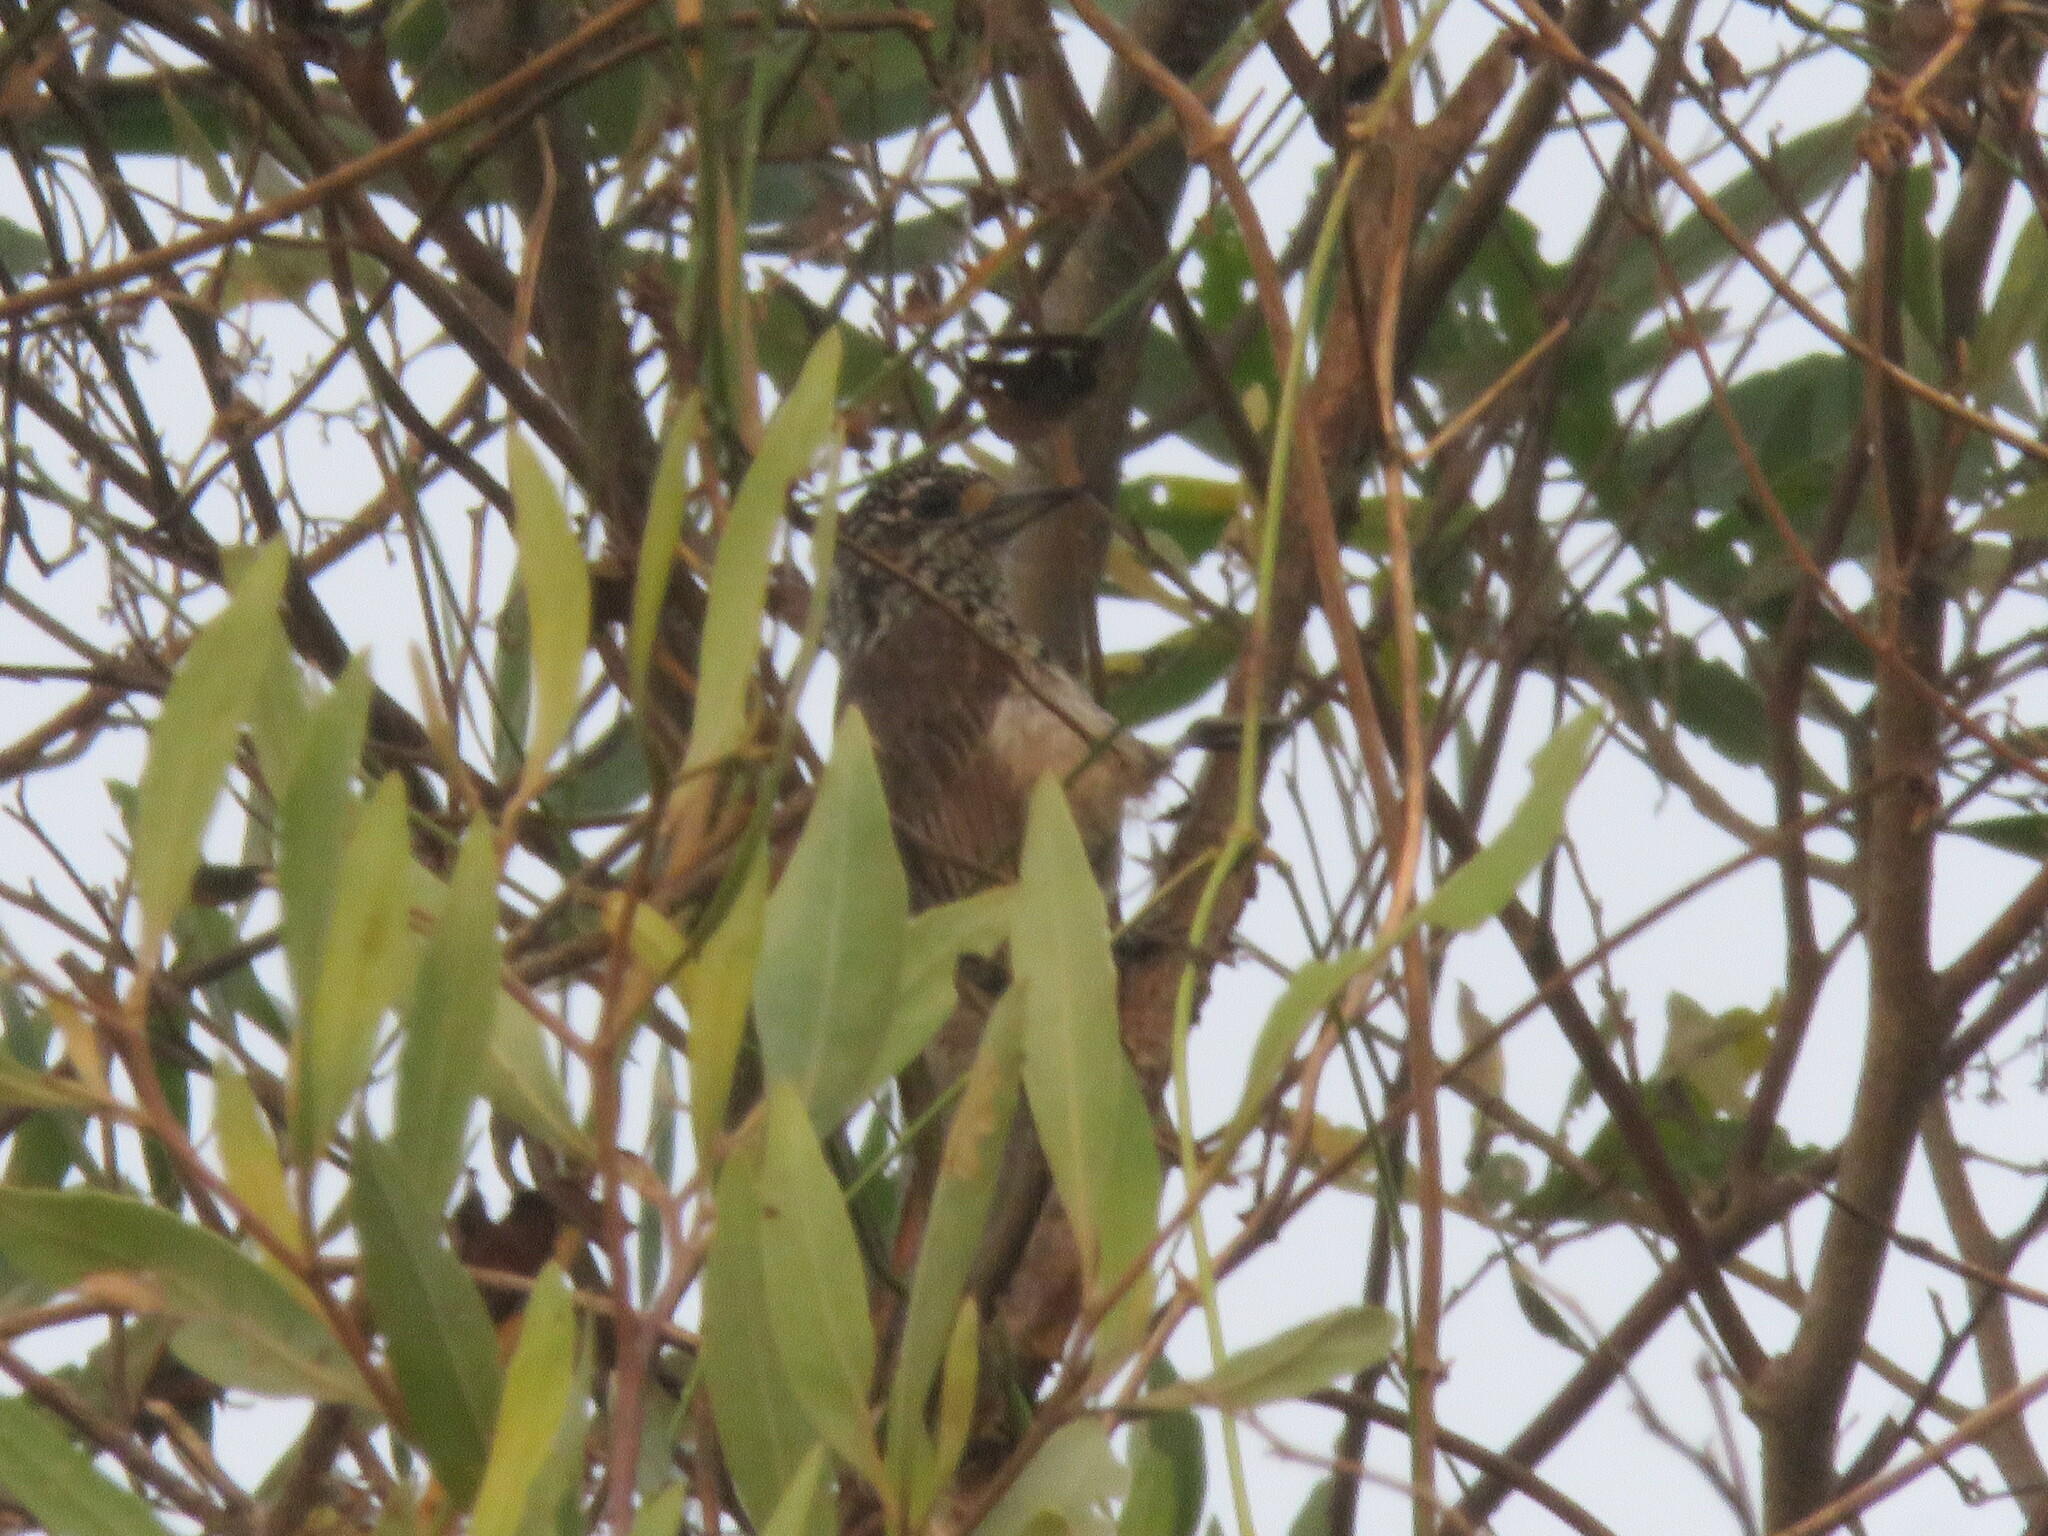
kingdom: Animalia
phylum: Chordata
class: Aves
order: Piciformes
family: Picidae
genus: Picumnus
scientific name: Picumnus albosquamatus
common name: White-wedged piculet
